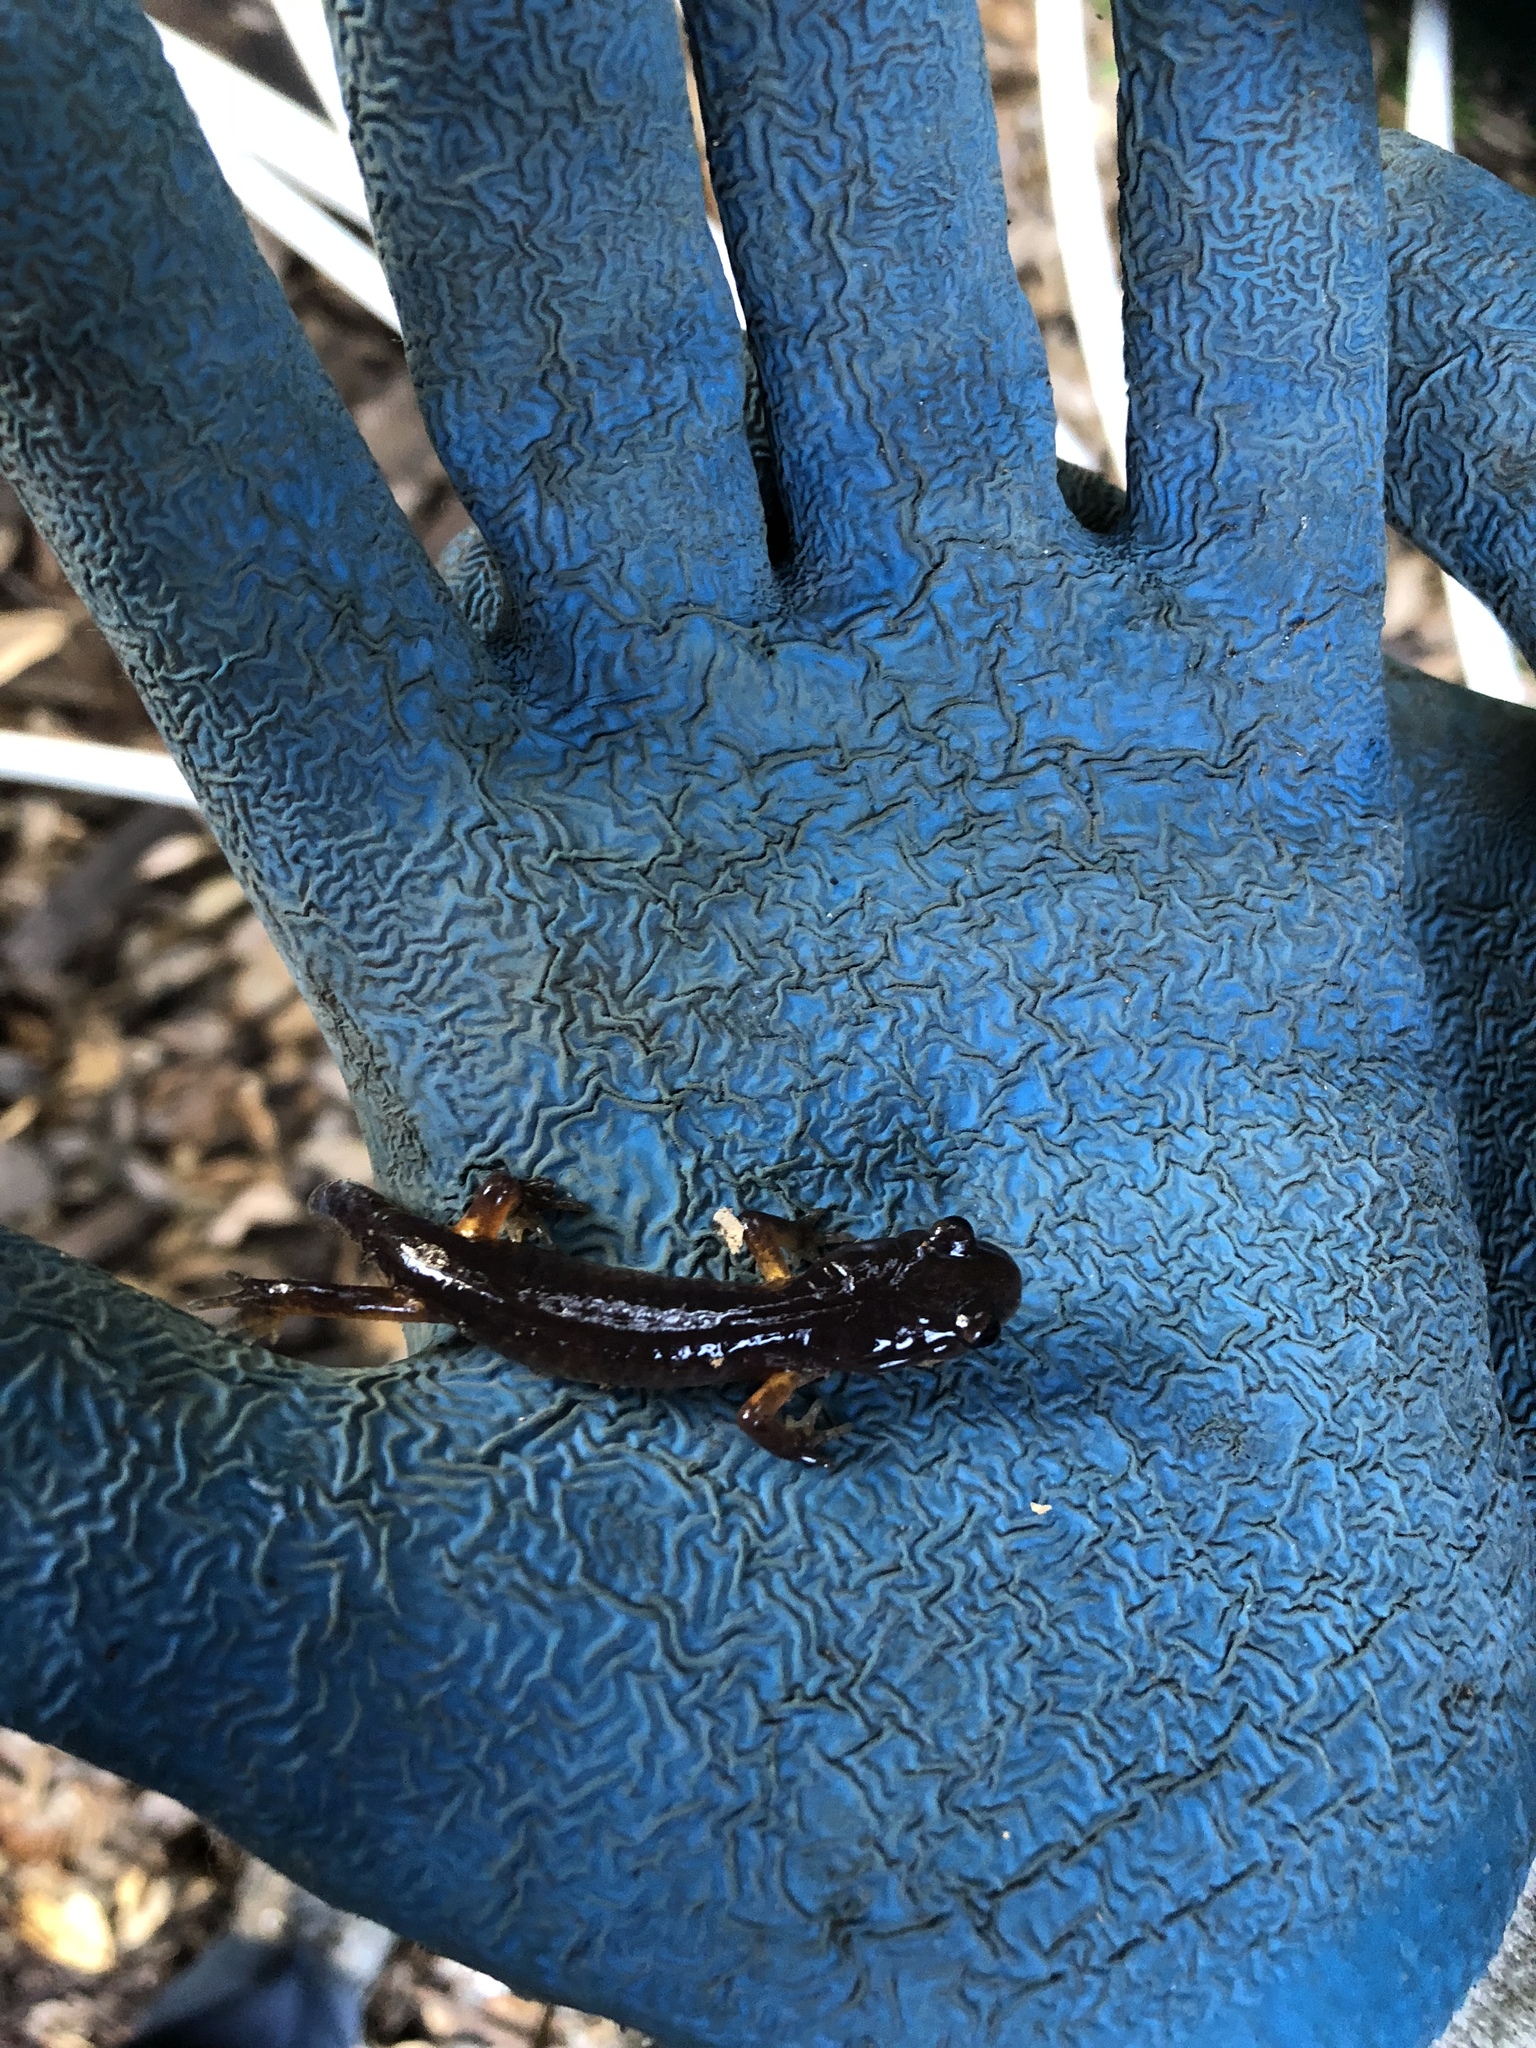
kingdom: Animalia
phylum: Chordata
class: Amphibia
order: Caudata
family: Plethodontidae
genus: Ensatina
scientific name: Ensatina eschscholtzii
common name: Ensatina
